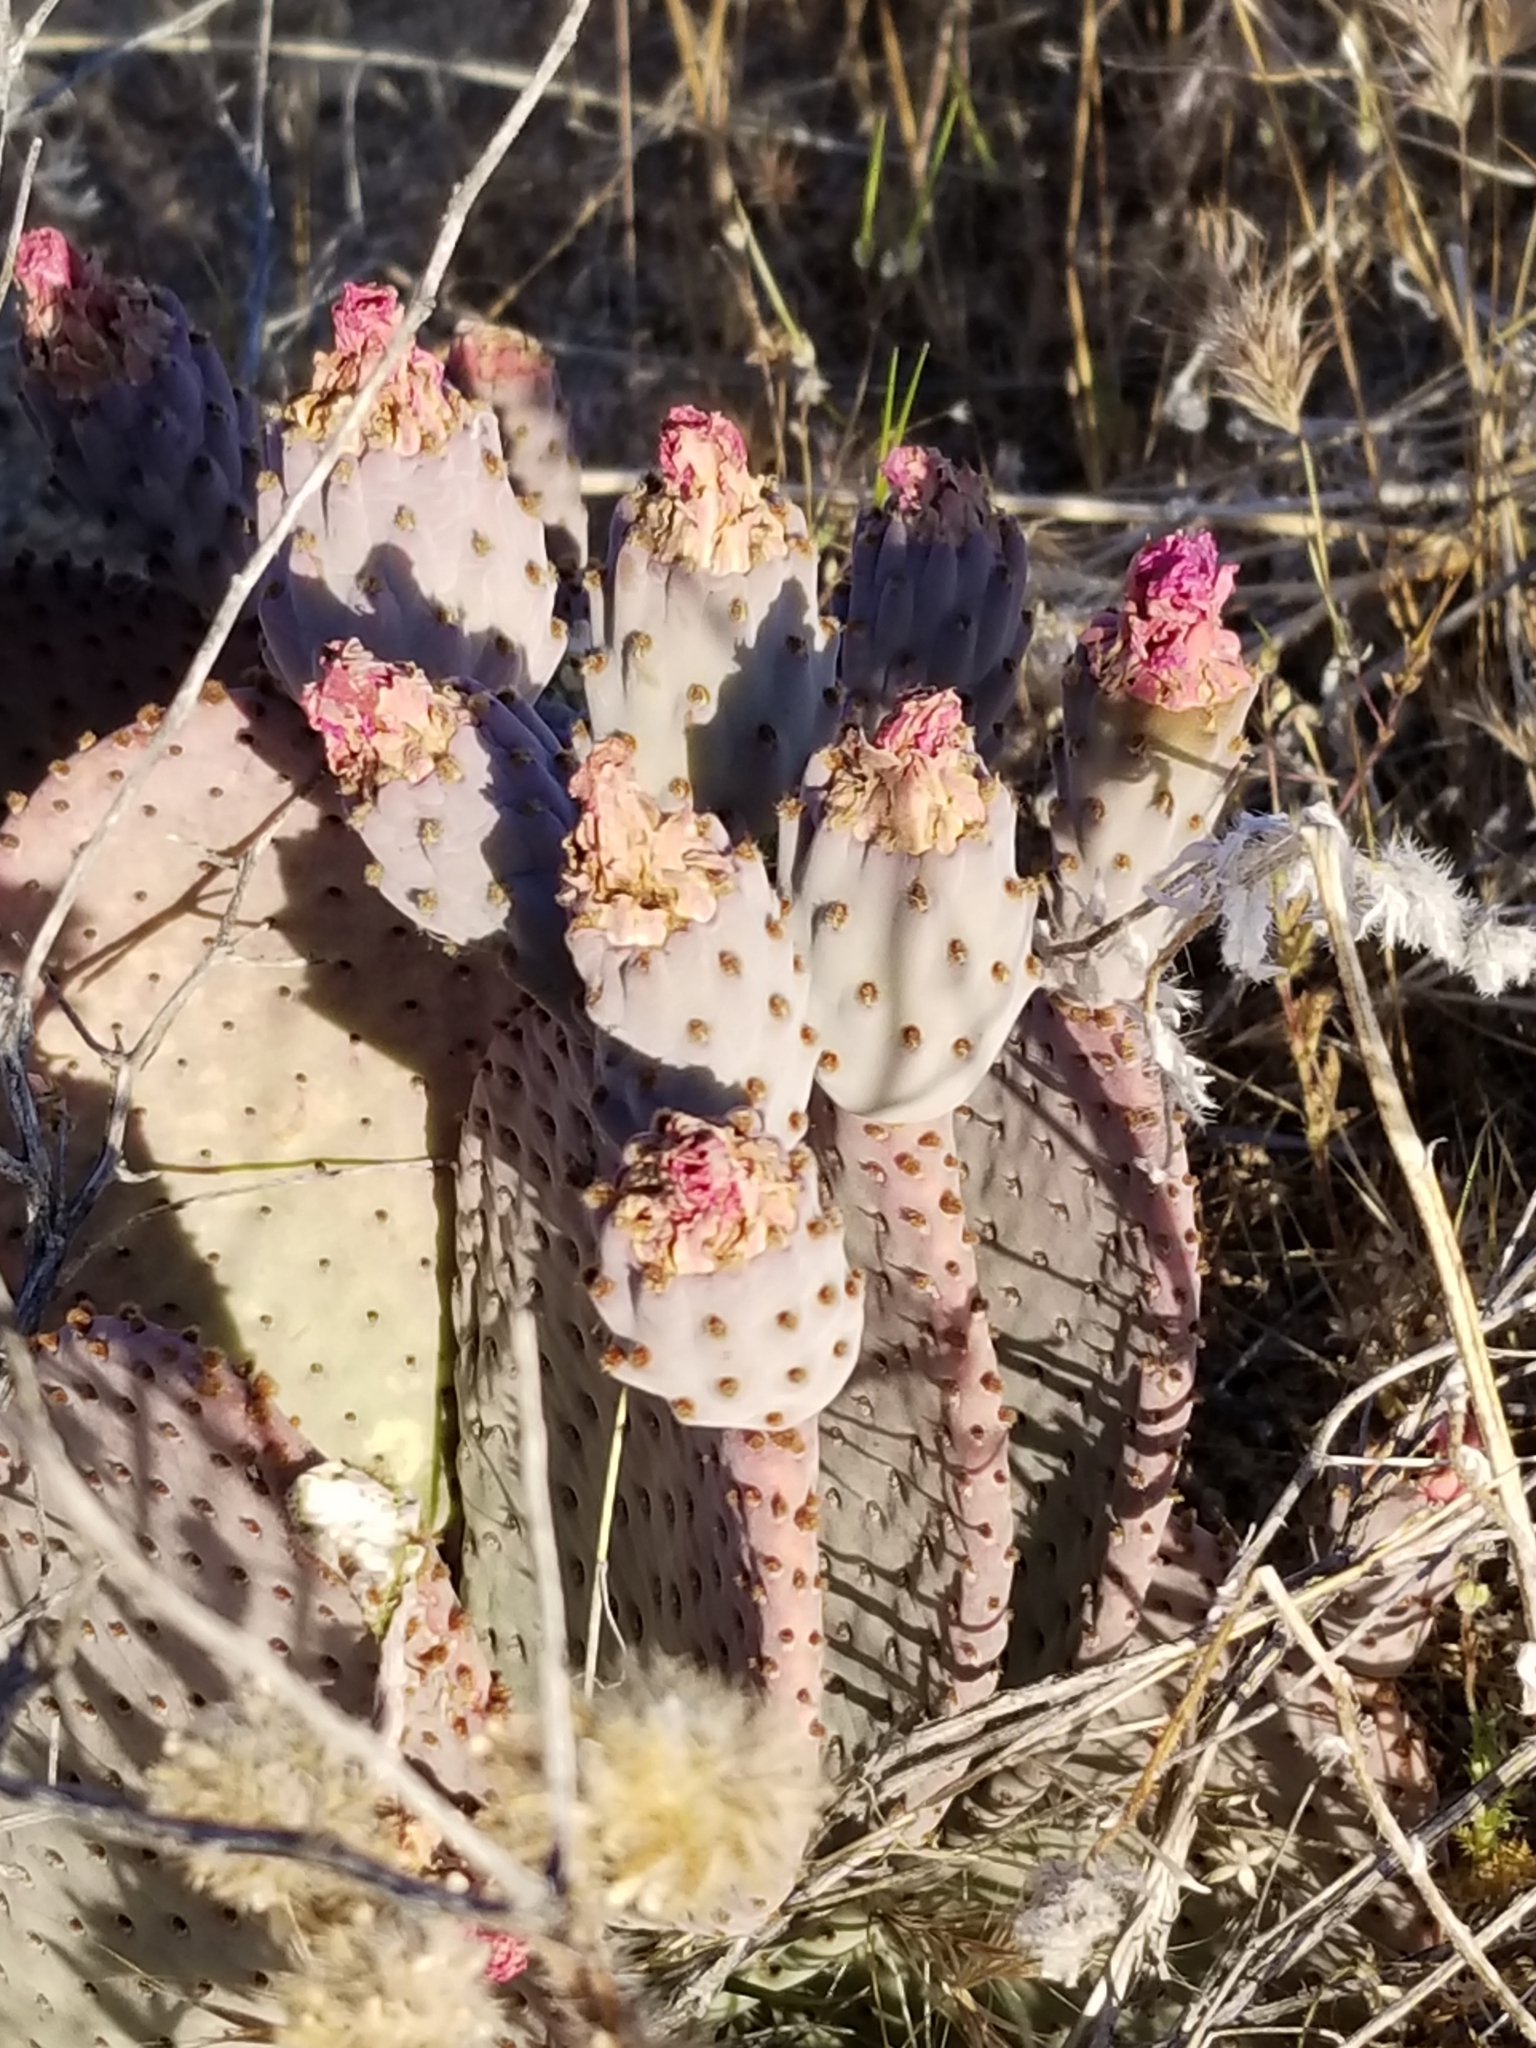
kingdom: Plantae
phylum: Tracheophyta
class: Magnoliopsida
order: Caryophyllales
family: Cactaceae
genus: Opuntia
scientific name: Opuntia basilaris
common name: Beavertail prickly-pear
